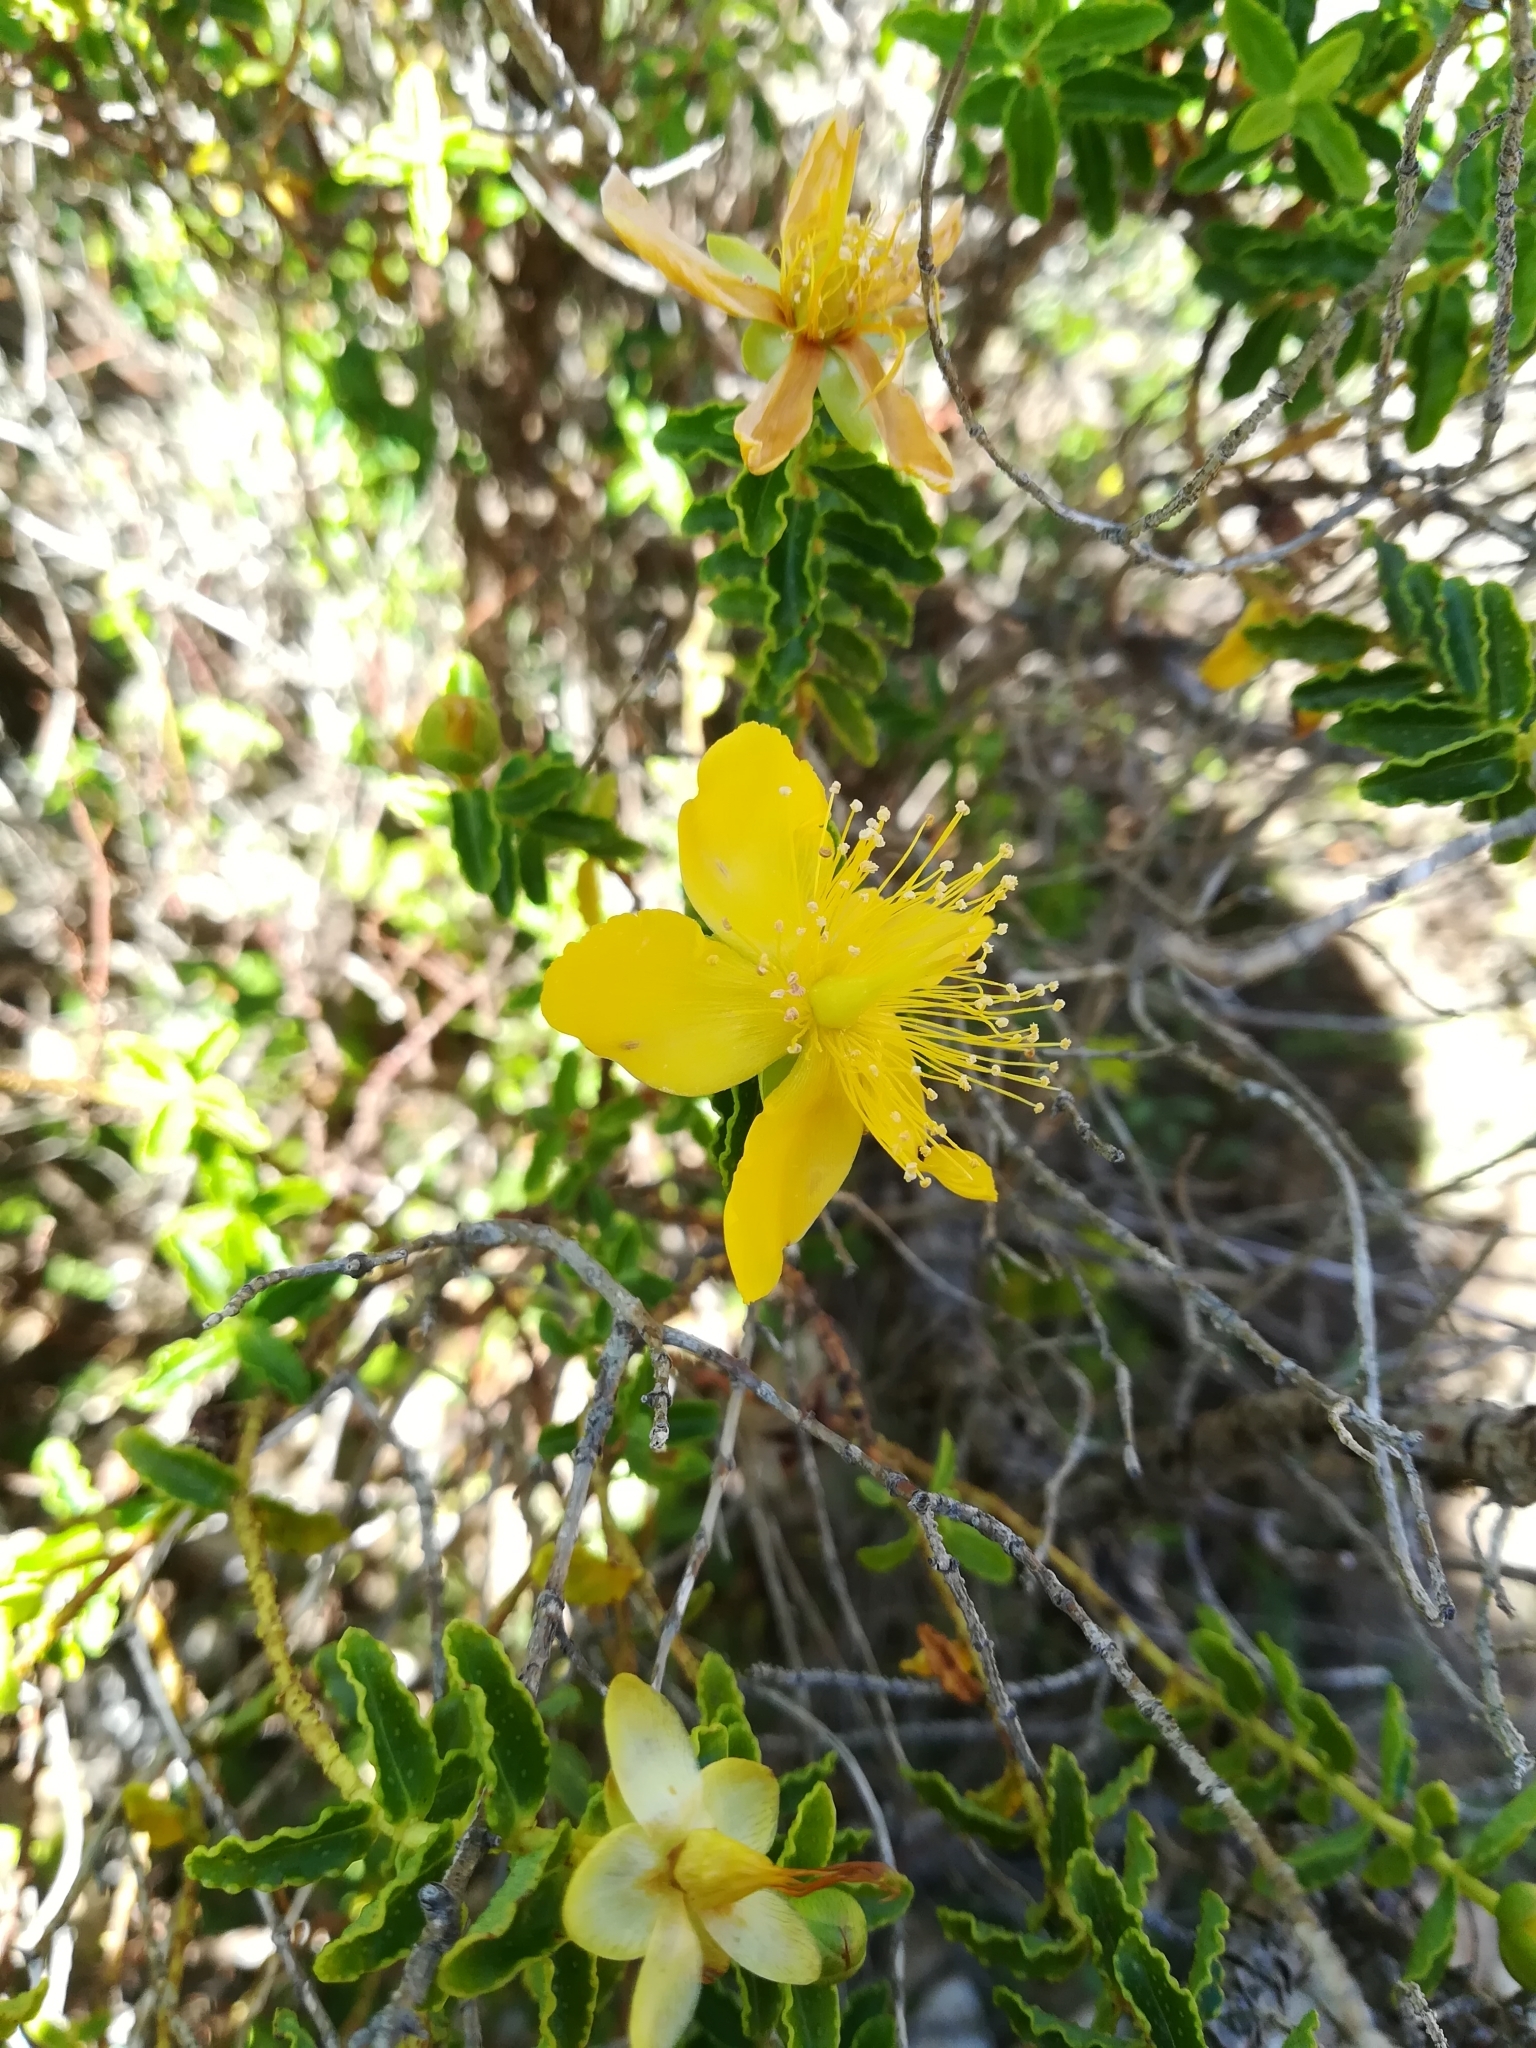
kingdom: Plantae
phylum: Tracheophyta
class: Magnoliopsida
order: Malpighiales
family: Hypericaceae
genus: Hypericum
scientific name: Hypericum balearicum
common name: Majorca st john's wort
